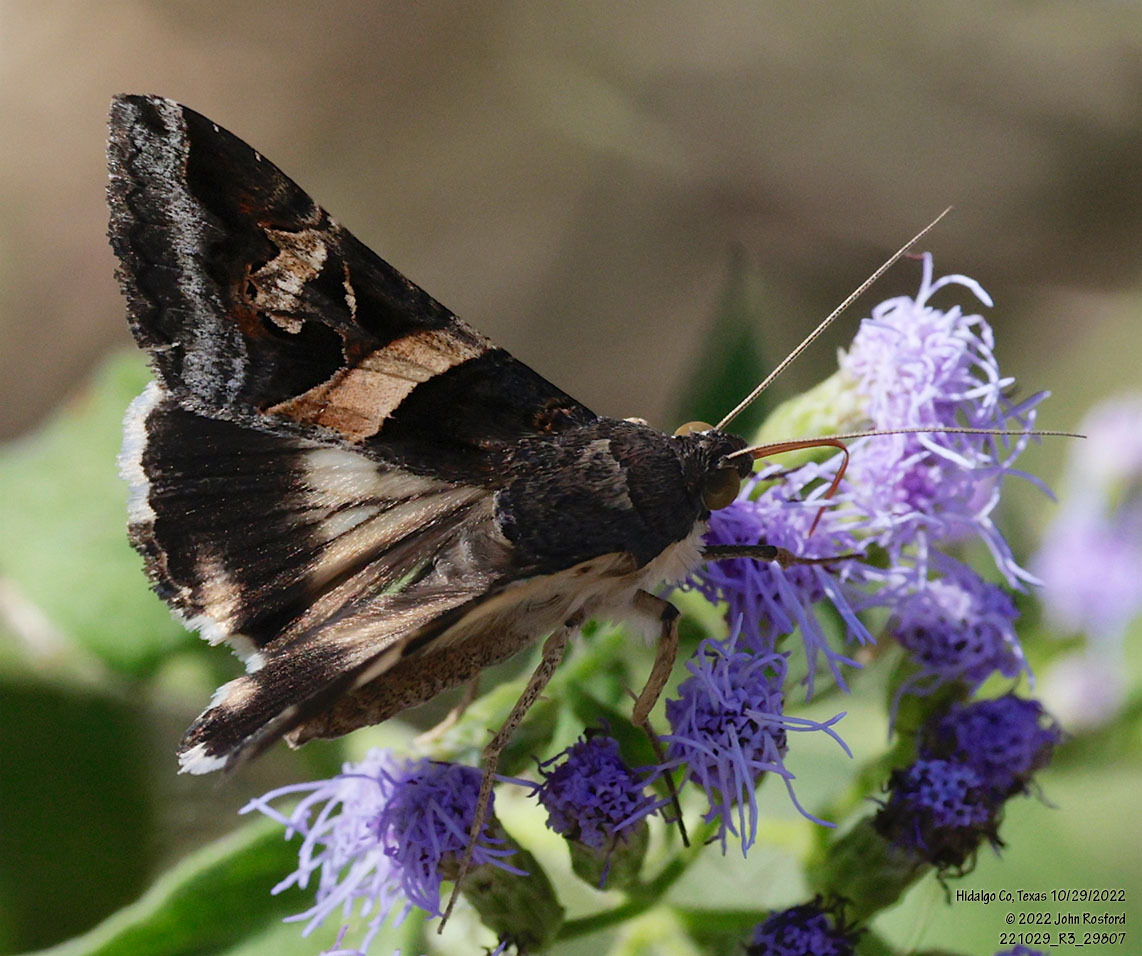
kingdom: Animalia
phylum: Arthropoda
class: Insecta
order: Lepidoptera
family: Erebidae
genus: Melipotis
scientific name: Melipotis indomita
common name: Moth
